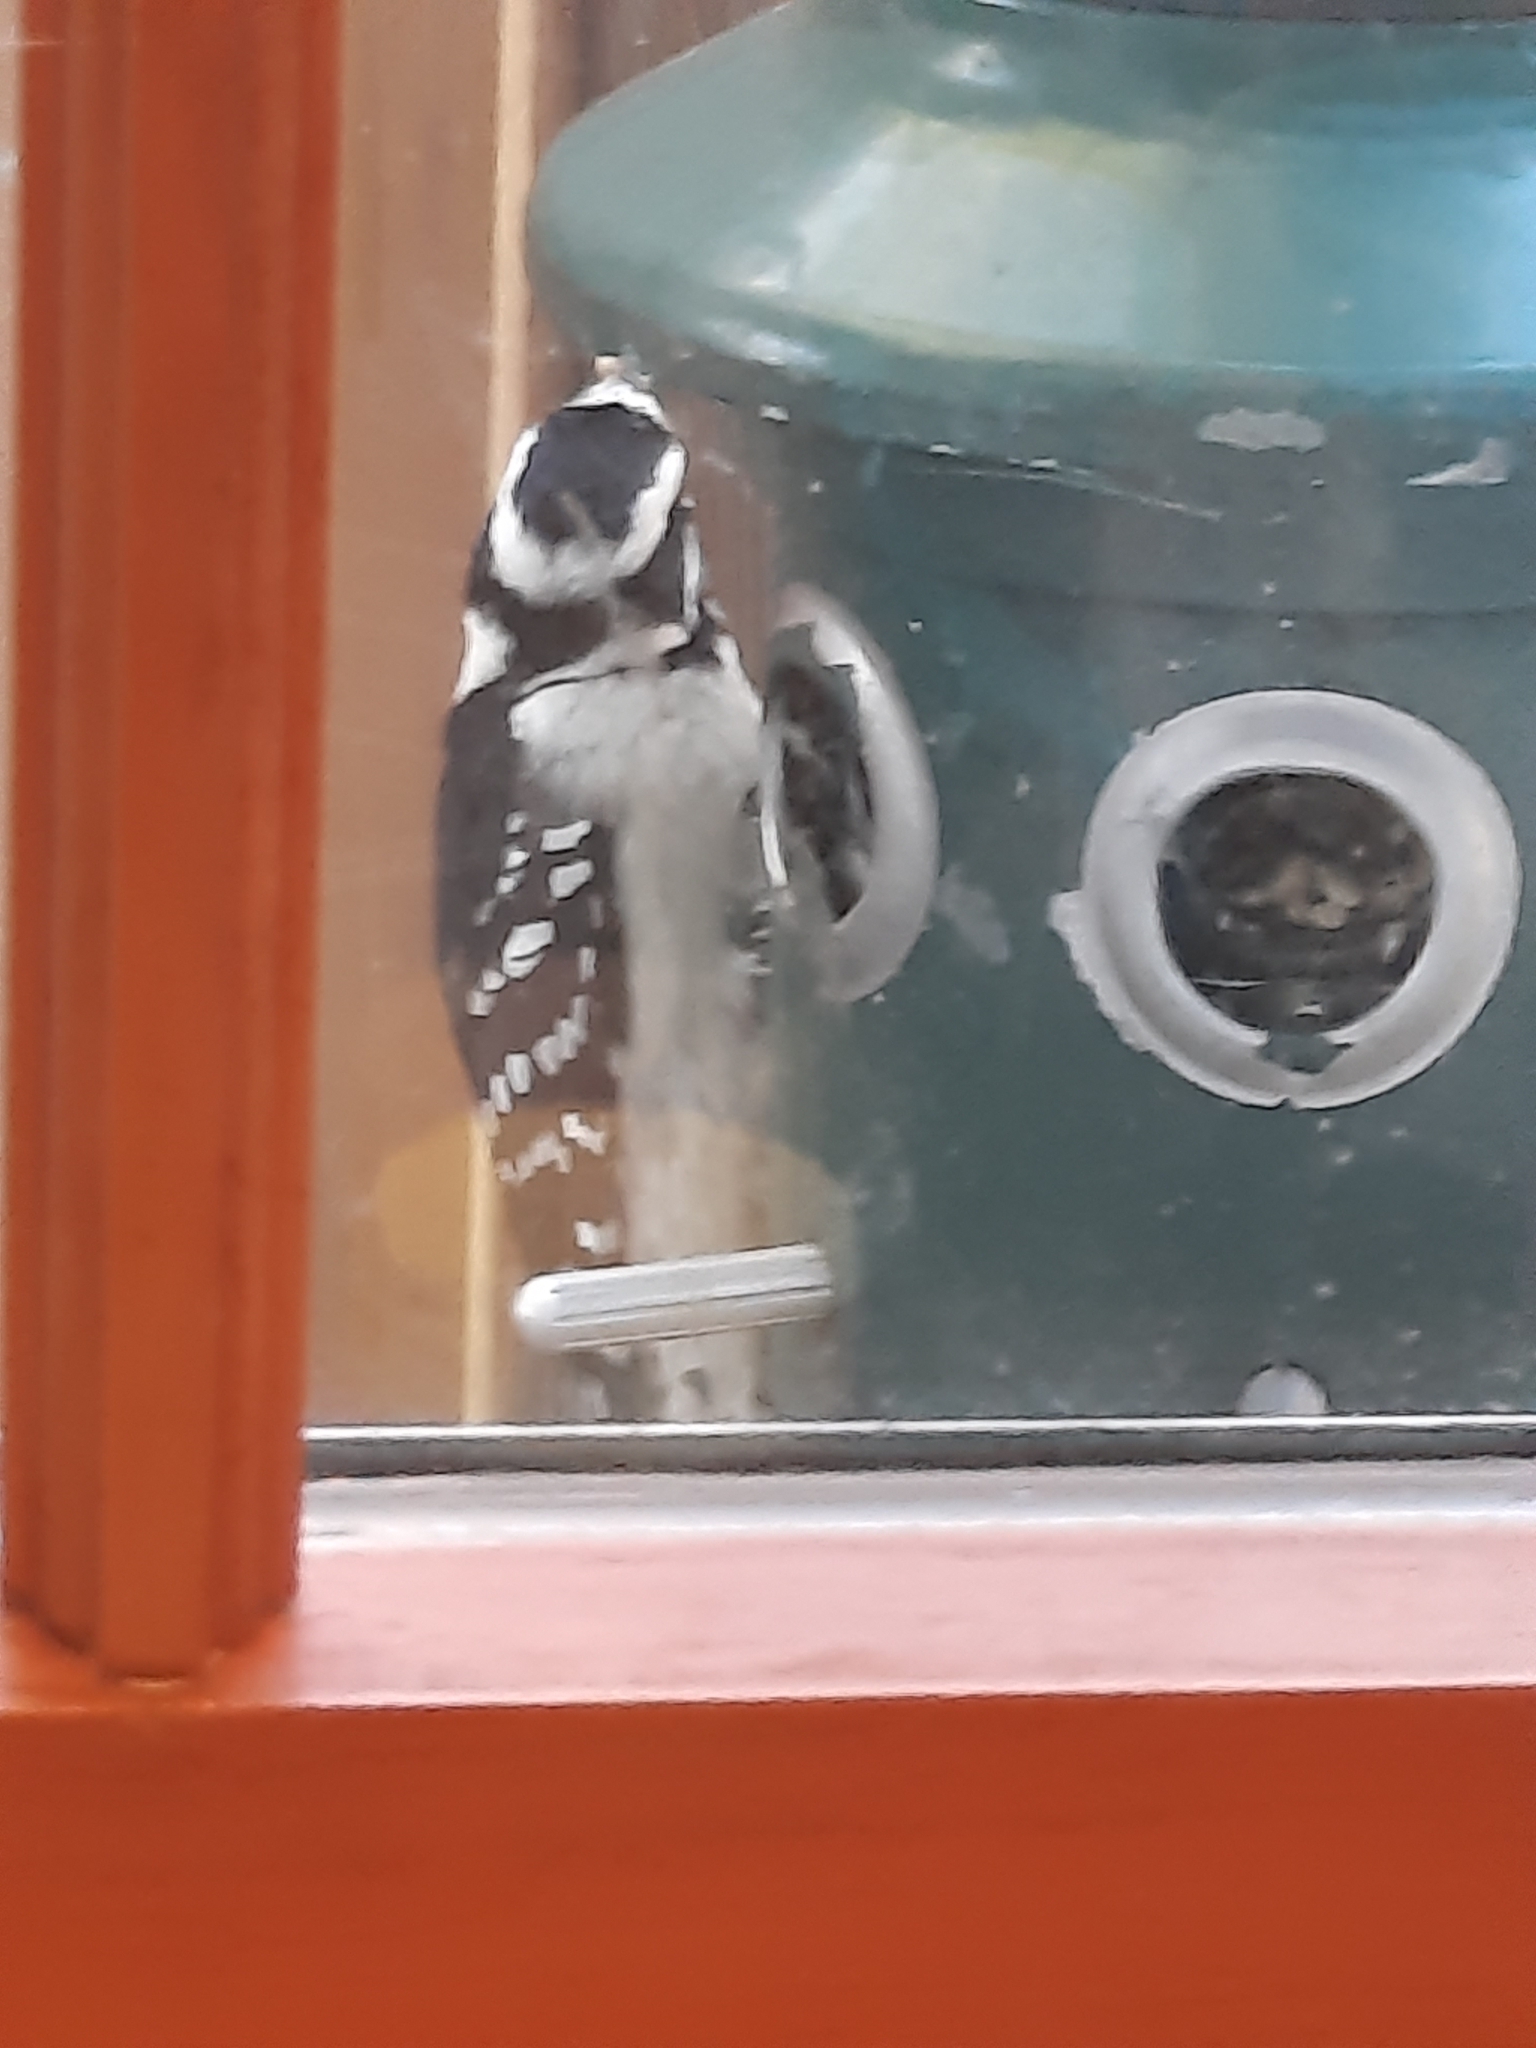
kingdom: Animalia
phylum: Chordata
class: Aves
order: Piciformes
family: Picidae
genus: Dryobates
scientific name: Dryobates pubescens
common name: Downy woodpecker
